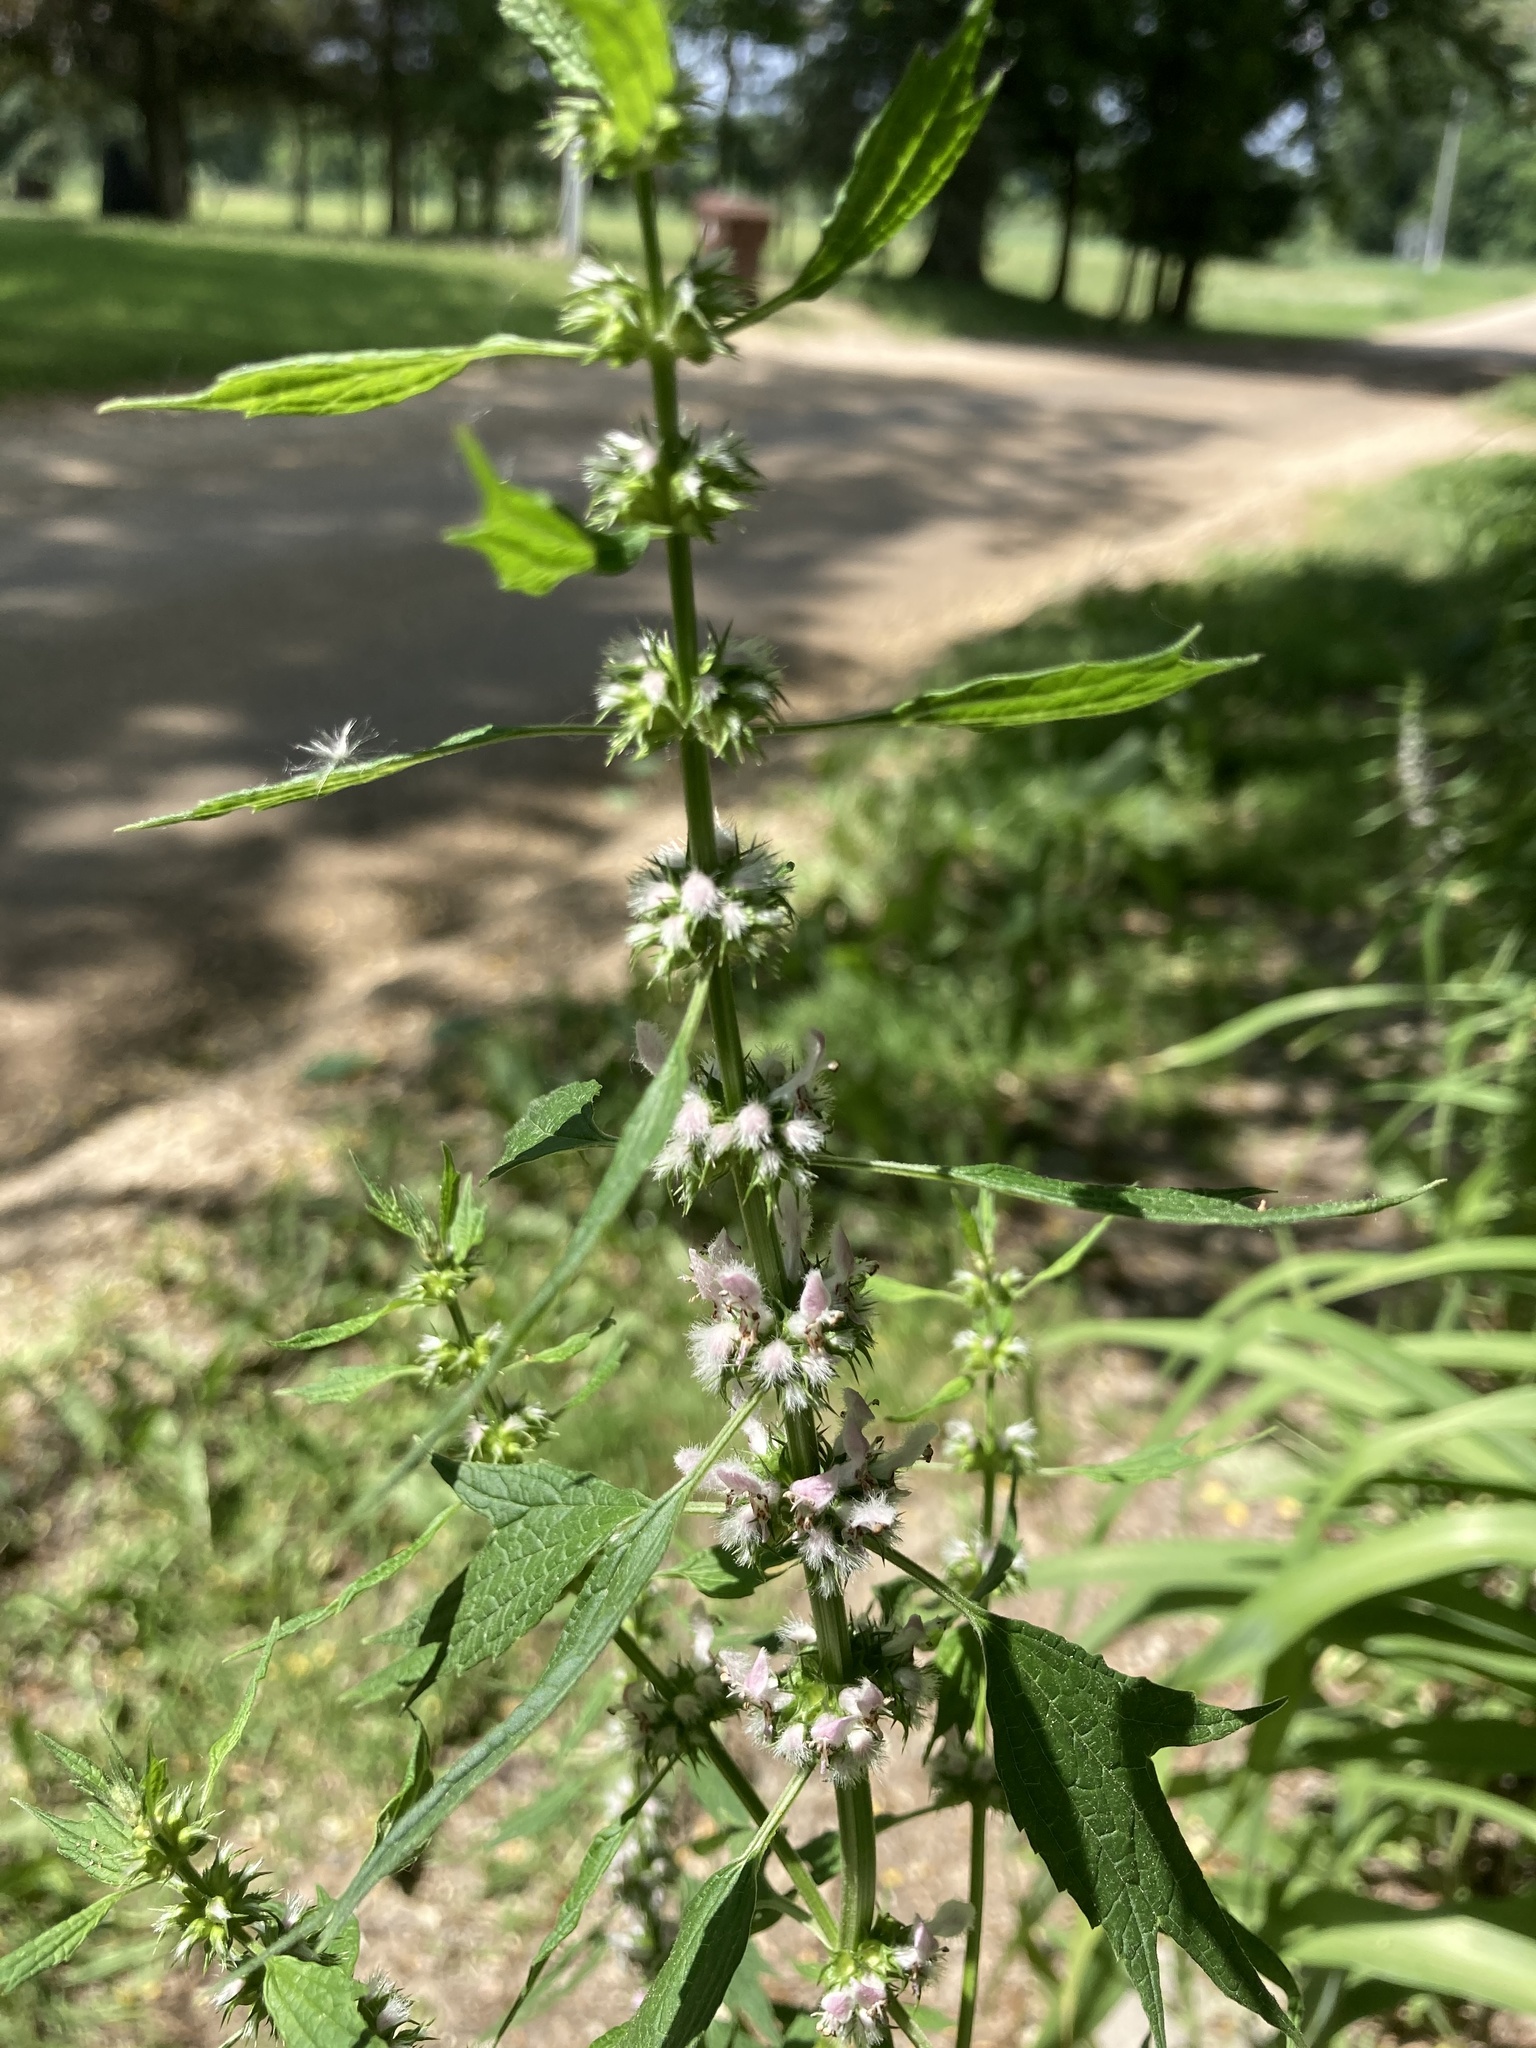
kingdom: Plantae
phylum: Tracheophyta
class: Magnoliopsida
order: Lamiales
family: Lamiaceae
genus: Leonurus
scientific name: Leonurus cardiaca
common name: Motherwort
